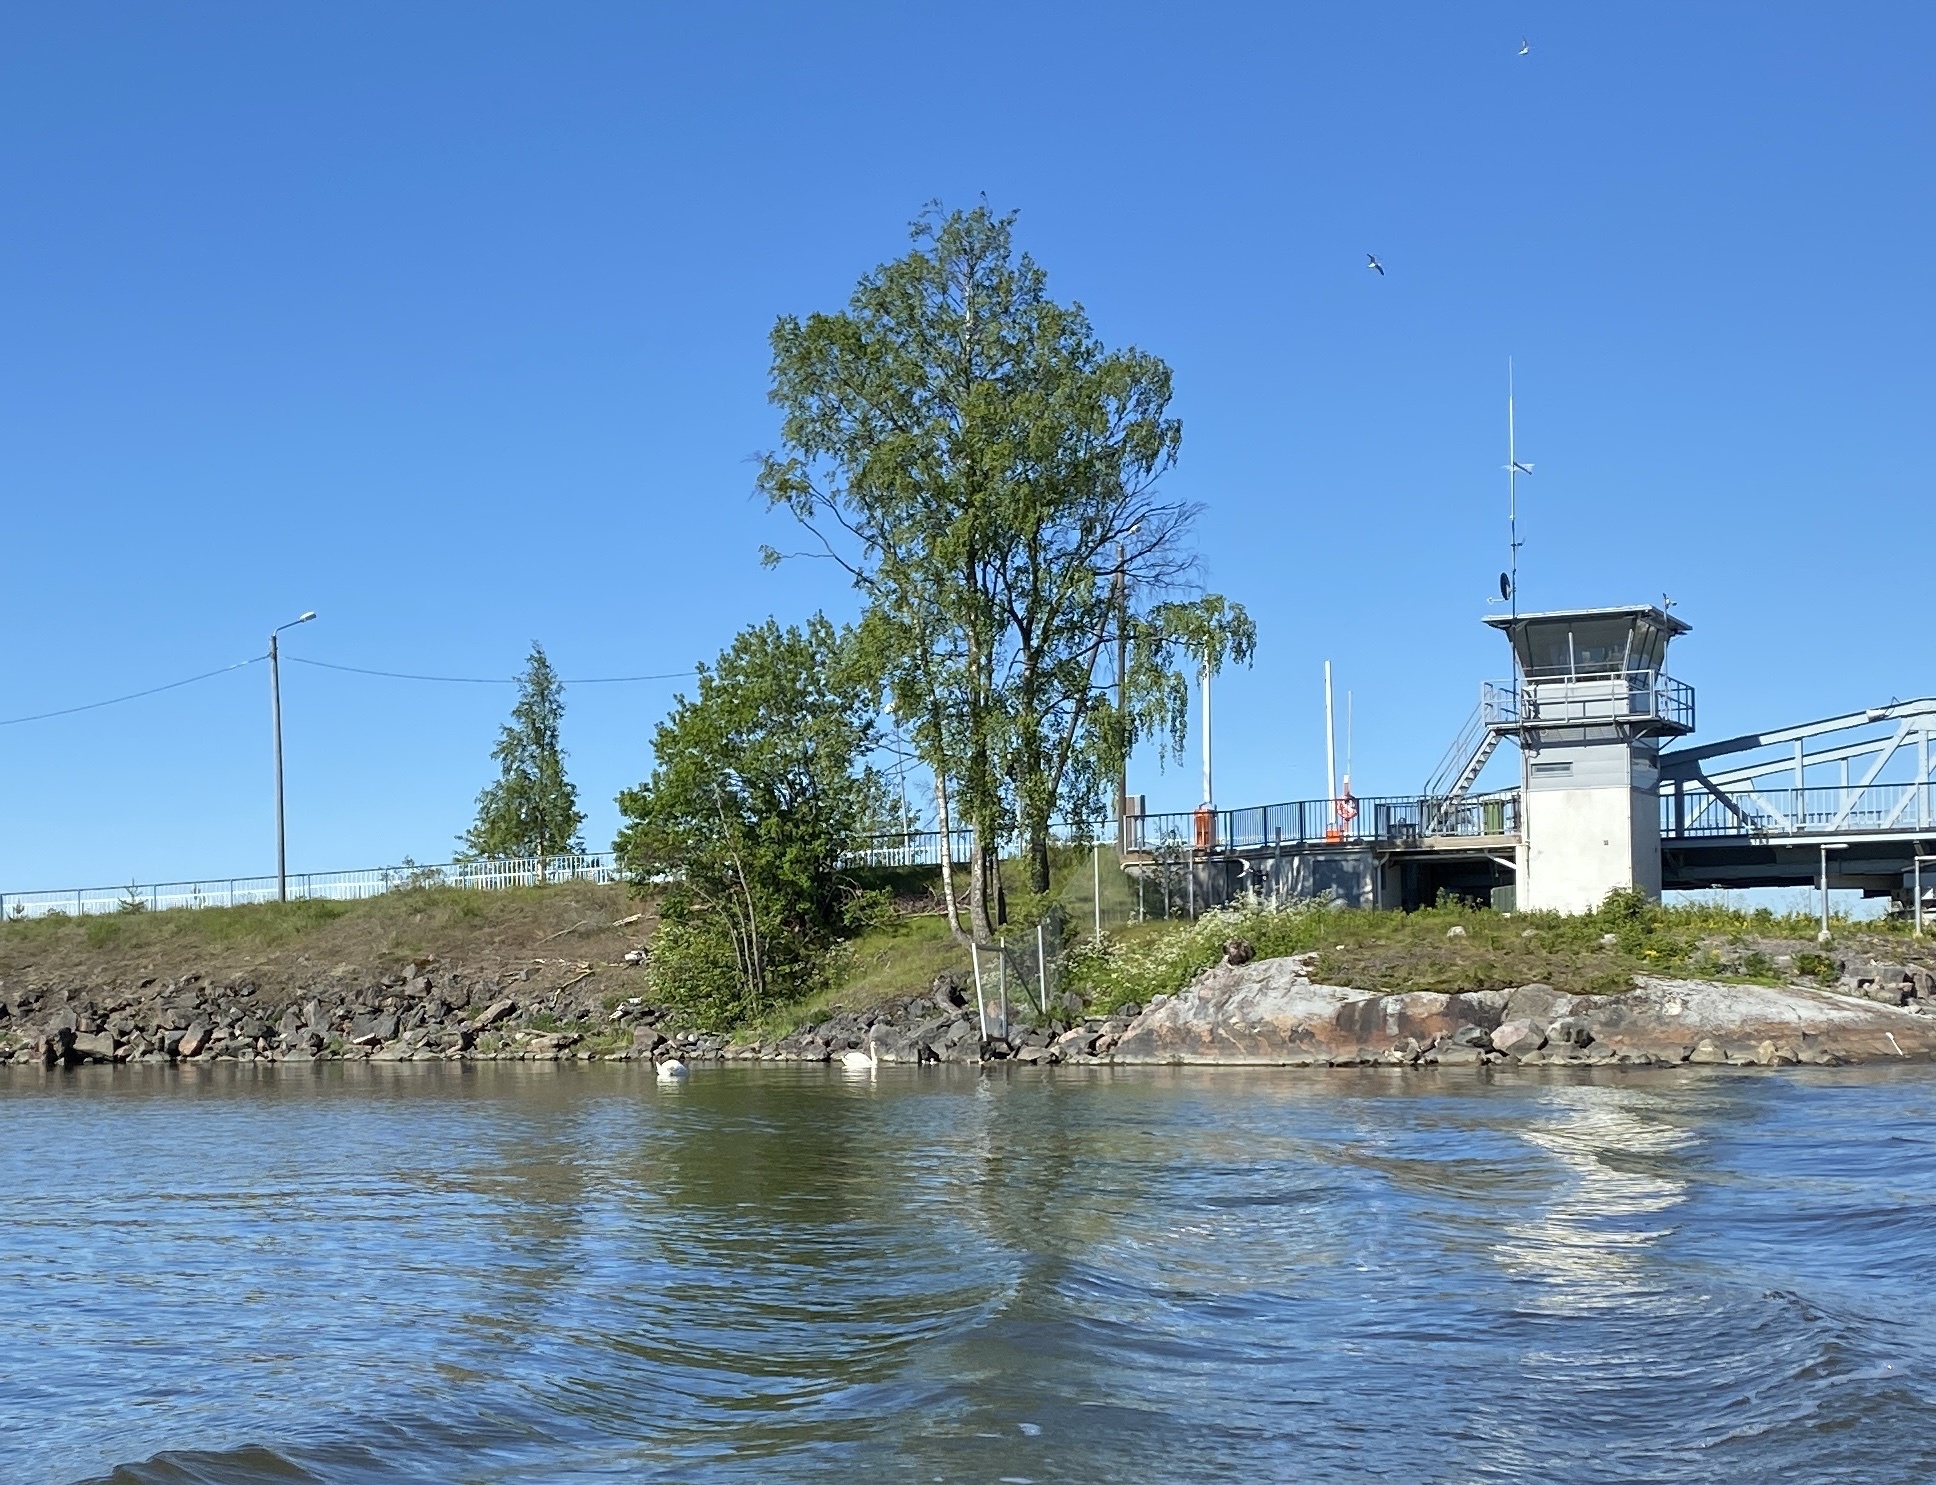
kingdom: Animalia
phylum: Chordata
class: Aves
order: Anseriformes
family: Anatidae
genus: Cygnus
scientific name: Cygnus olor
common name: Mute swan
